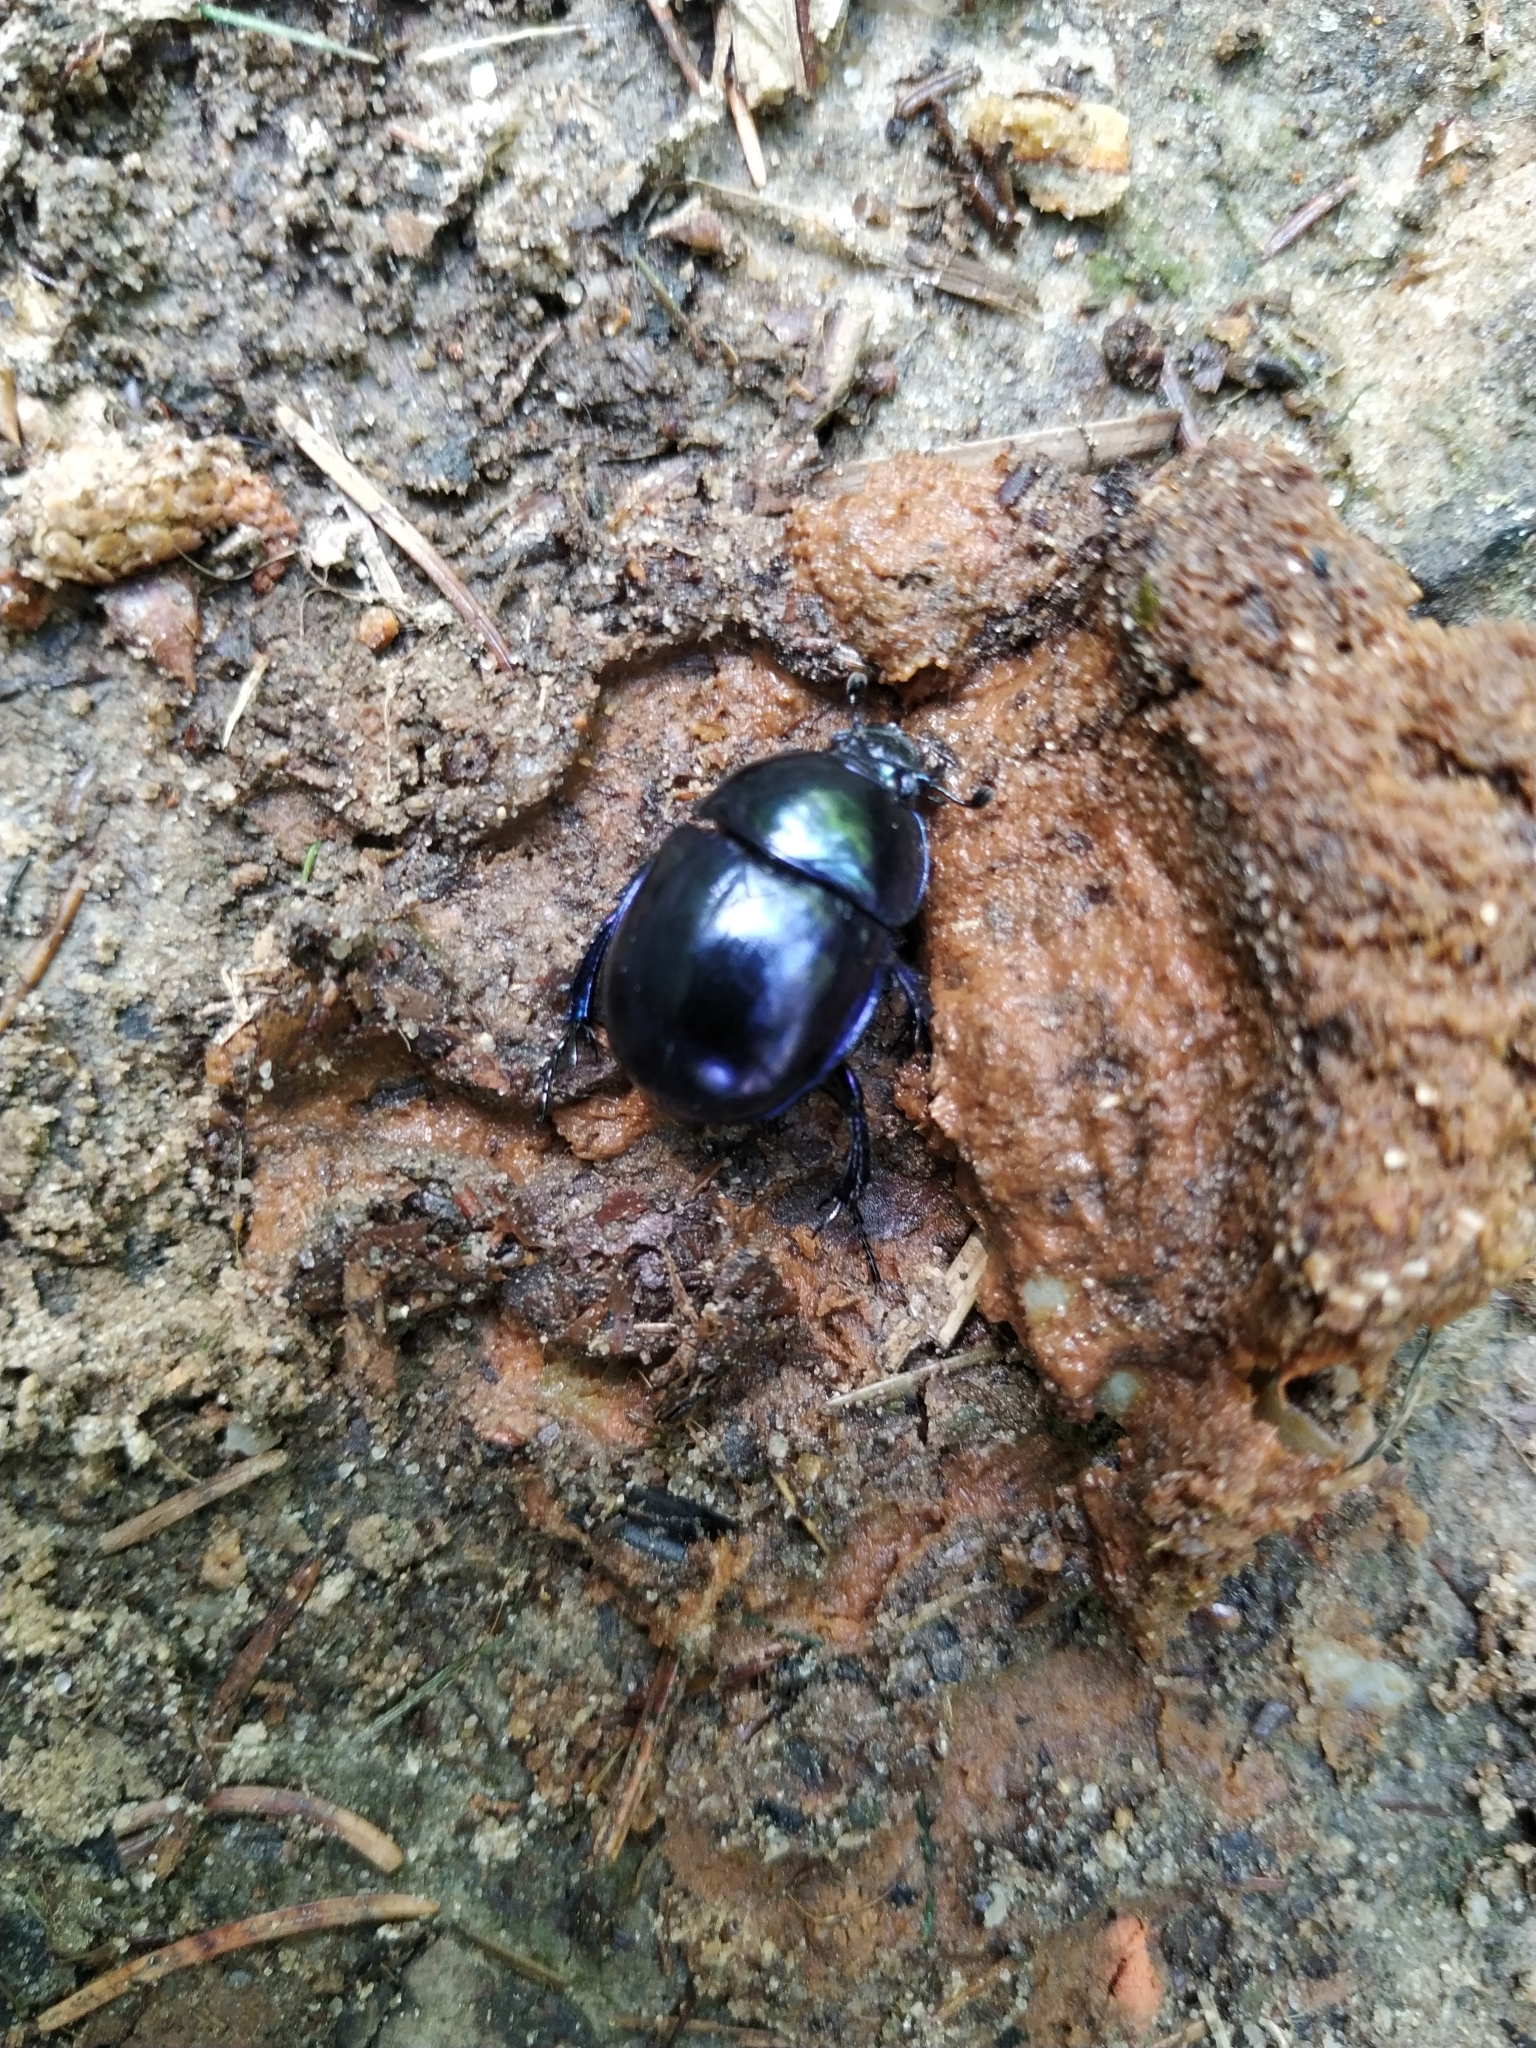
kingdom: Animalia
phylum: Arthropoda
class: Insecta
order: Coleoptera
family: Geotrupidae
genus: Trypocopris
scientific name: Trypocopris vernalis
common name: Spring dumbledor
